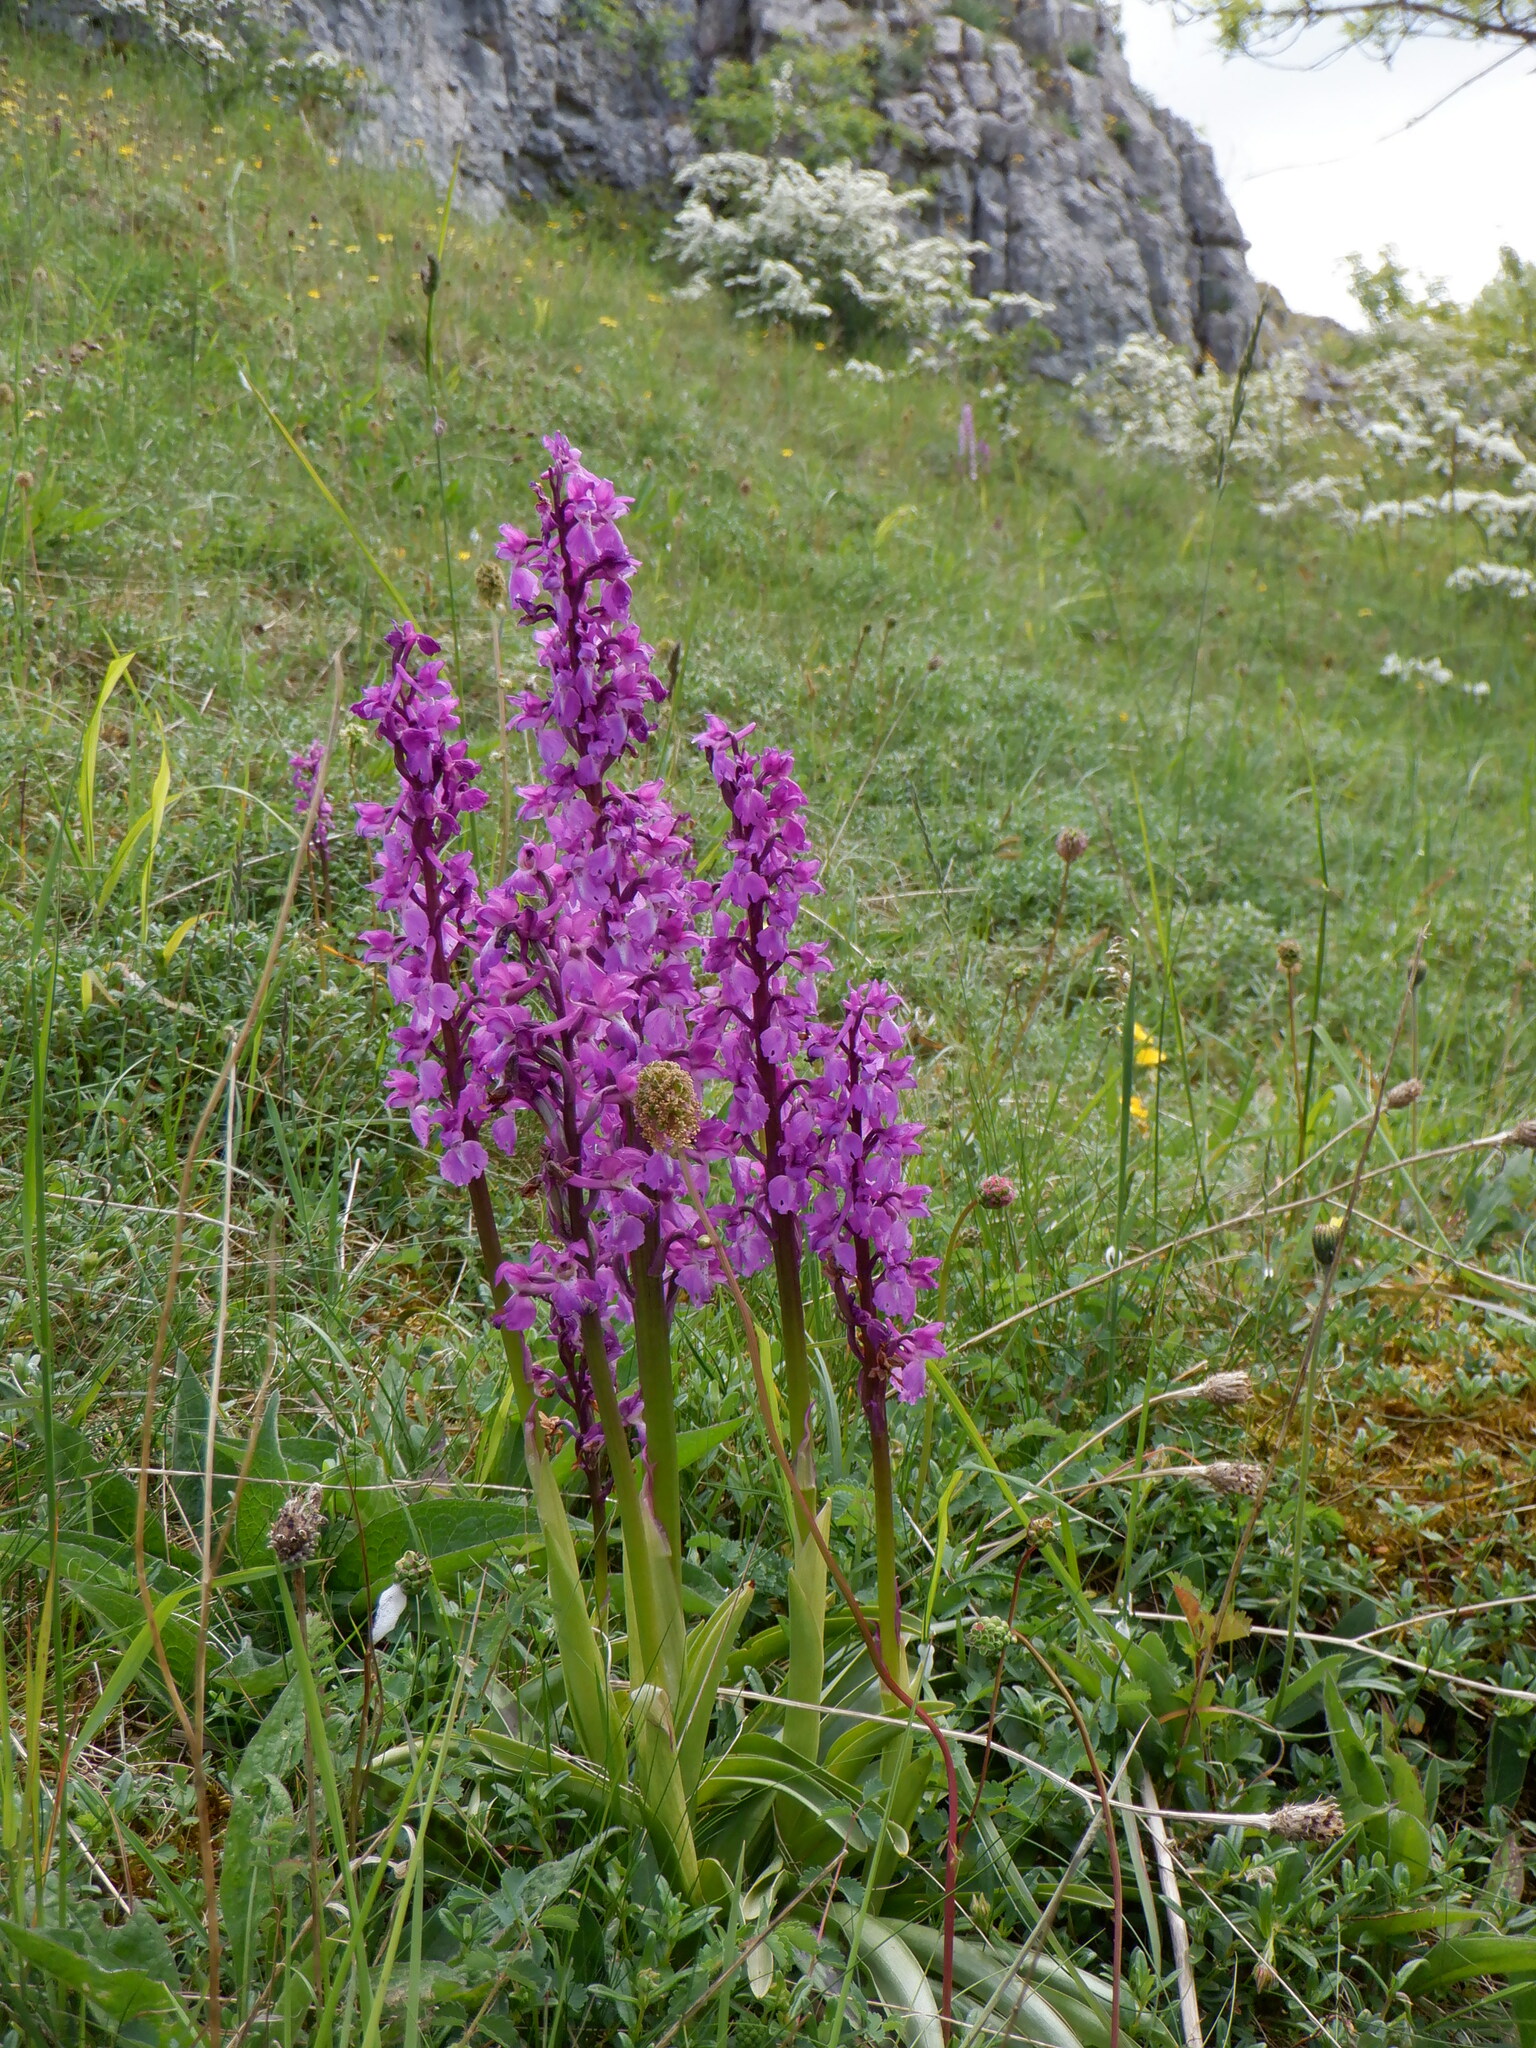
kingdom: Plantae
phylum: Tracheophyta
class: Liliopsida
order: Asparagales
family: Orchidaceae
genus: Orchis
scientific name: Orchis mascula
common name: Early-purple orchid
